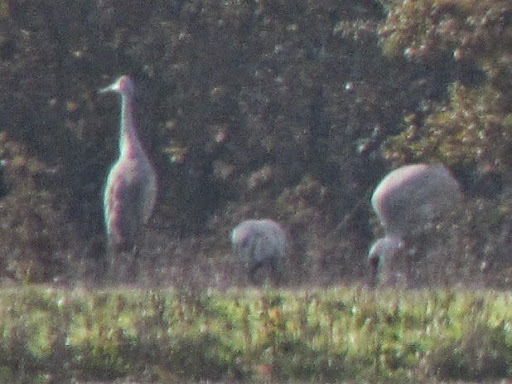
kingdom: Animalia
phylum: Chordata
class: Aves
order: Gruiformes
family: Gruidae
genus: Grus
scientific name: Grus canadensis
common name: Sandhill crane
